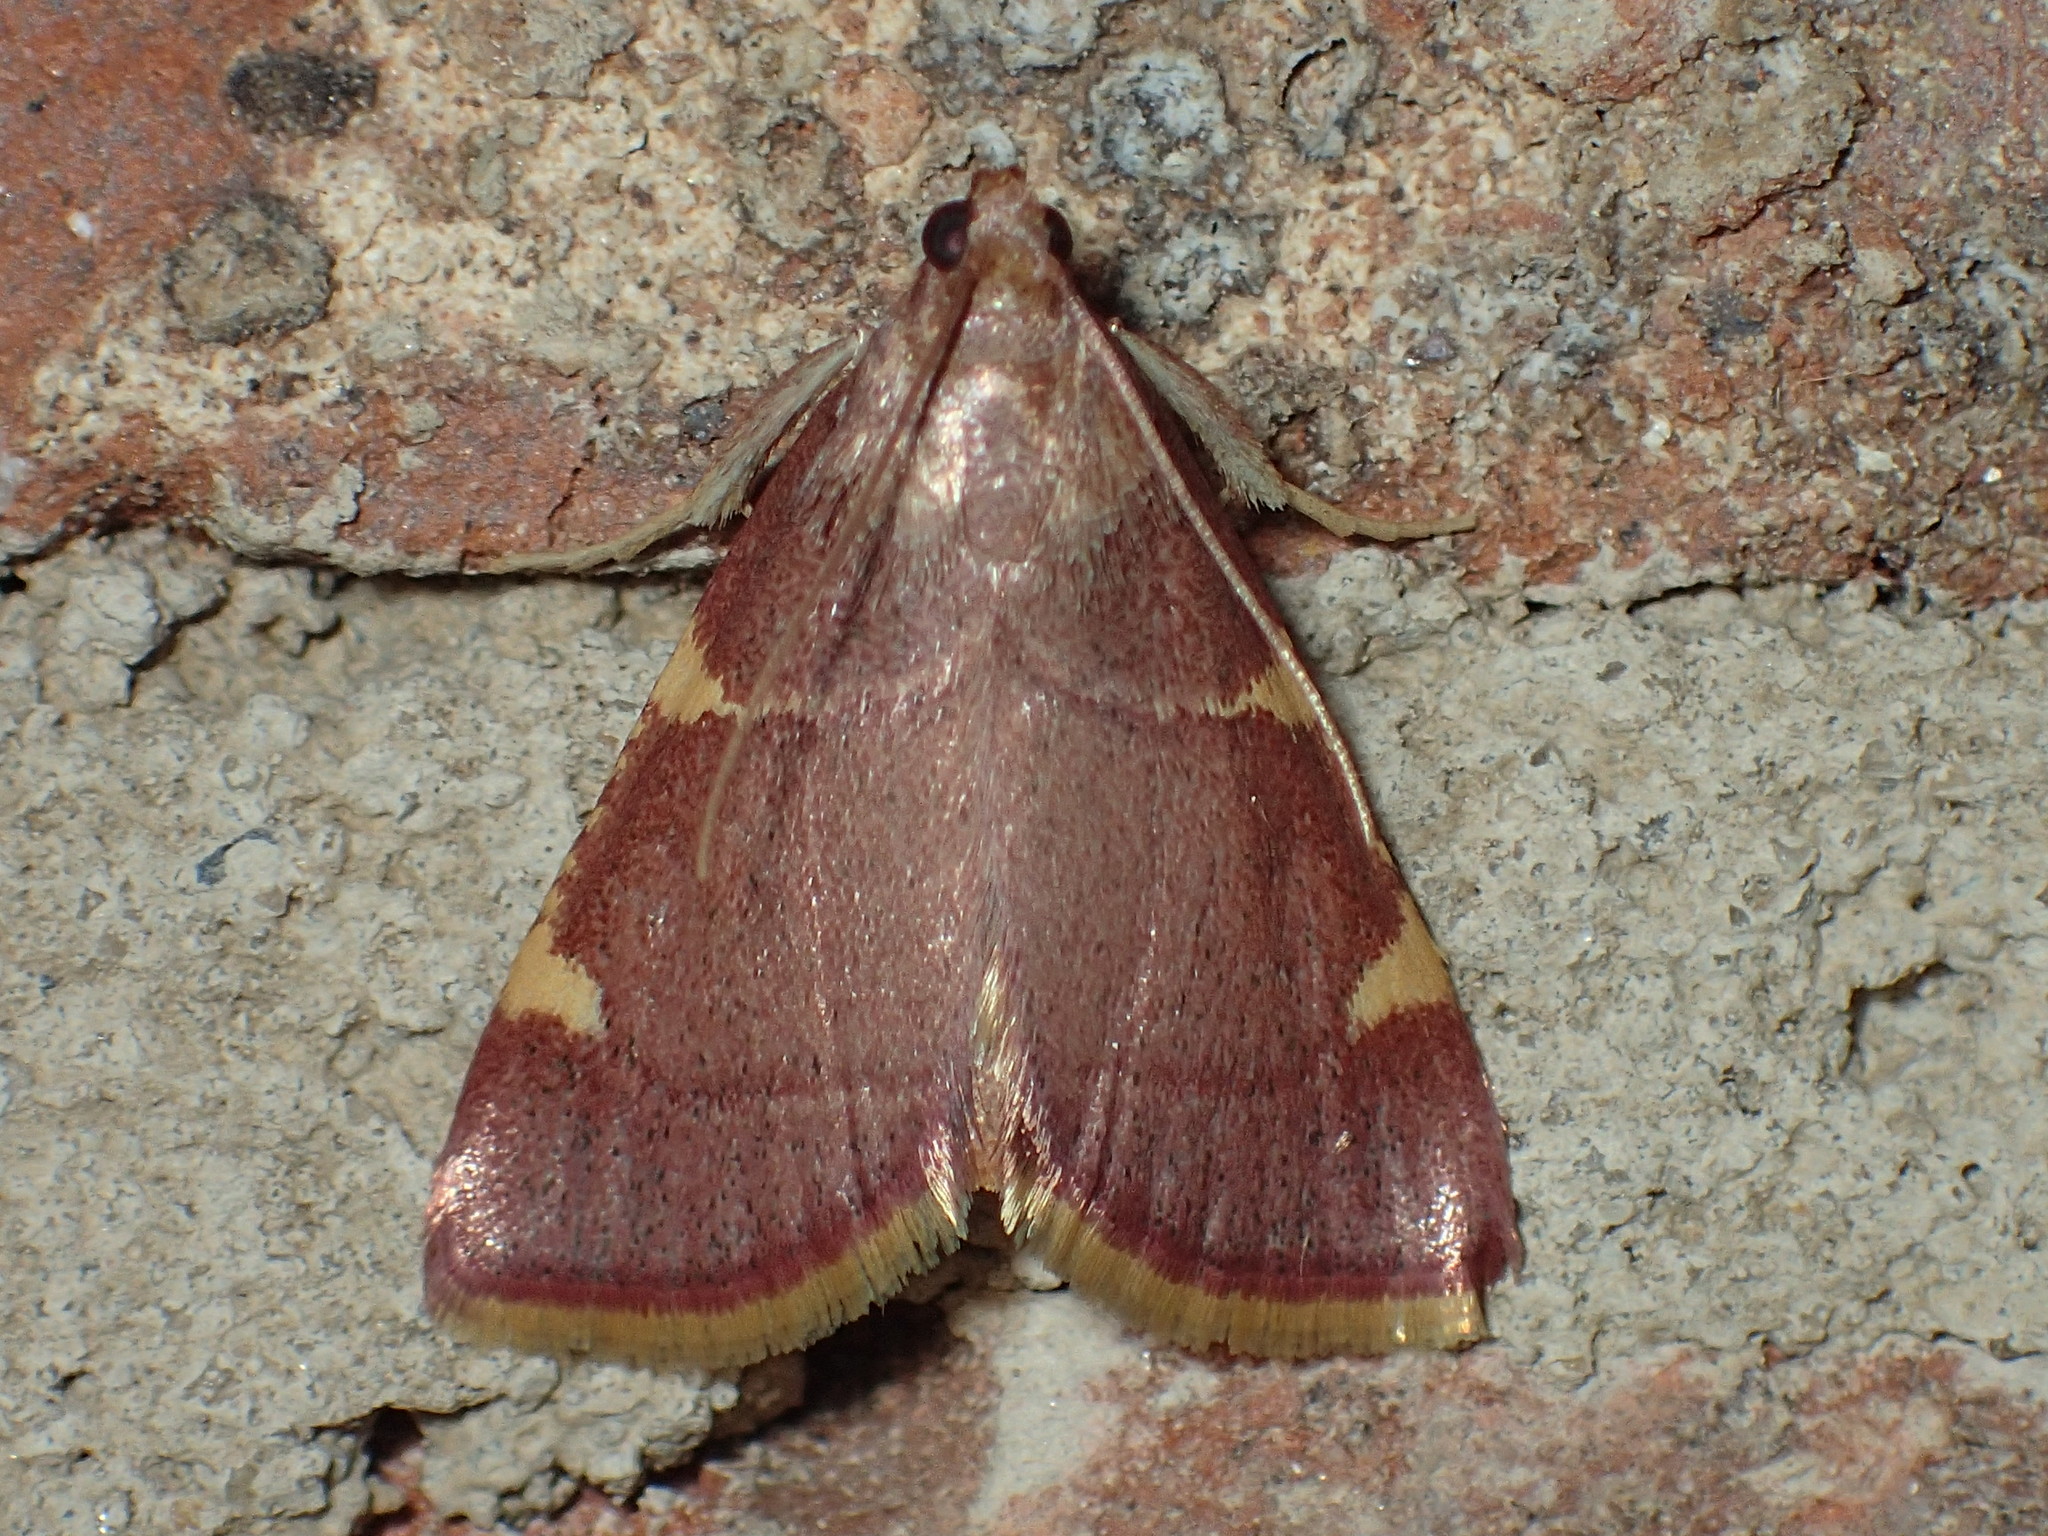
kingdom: Animalia
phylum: Arthropoda
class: Insecta
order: Lepidoptera
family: Pyralidae
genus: Hypsopygia
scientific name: Hypsopygia olinalis
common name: Yellow-fringed dolichomia moth
